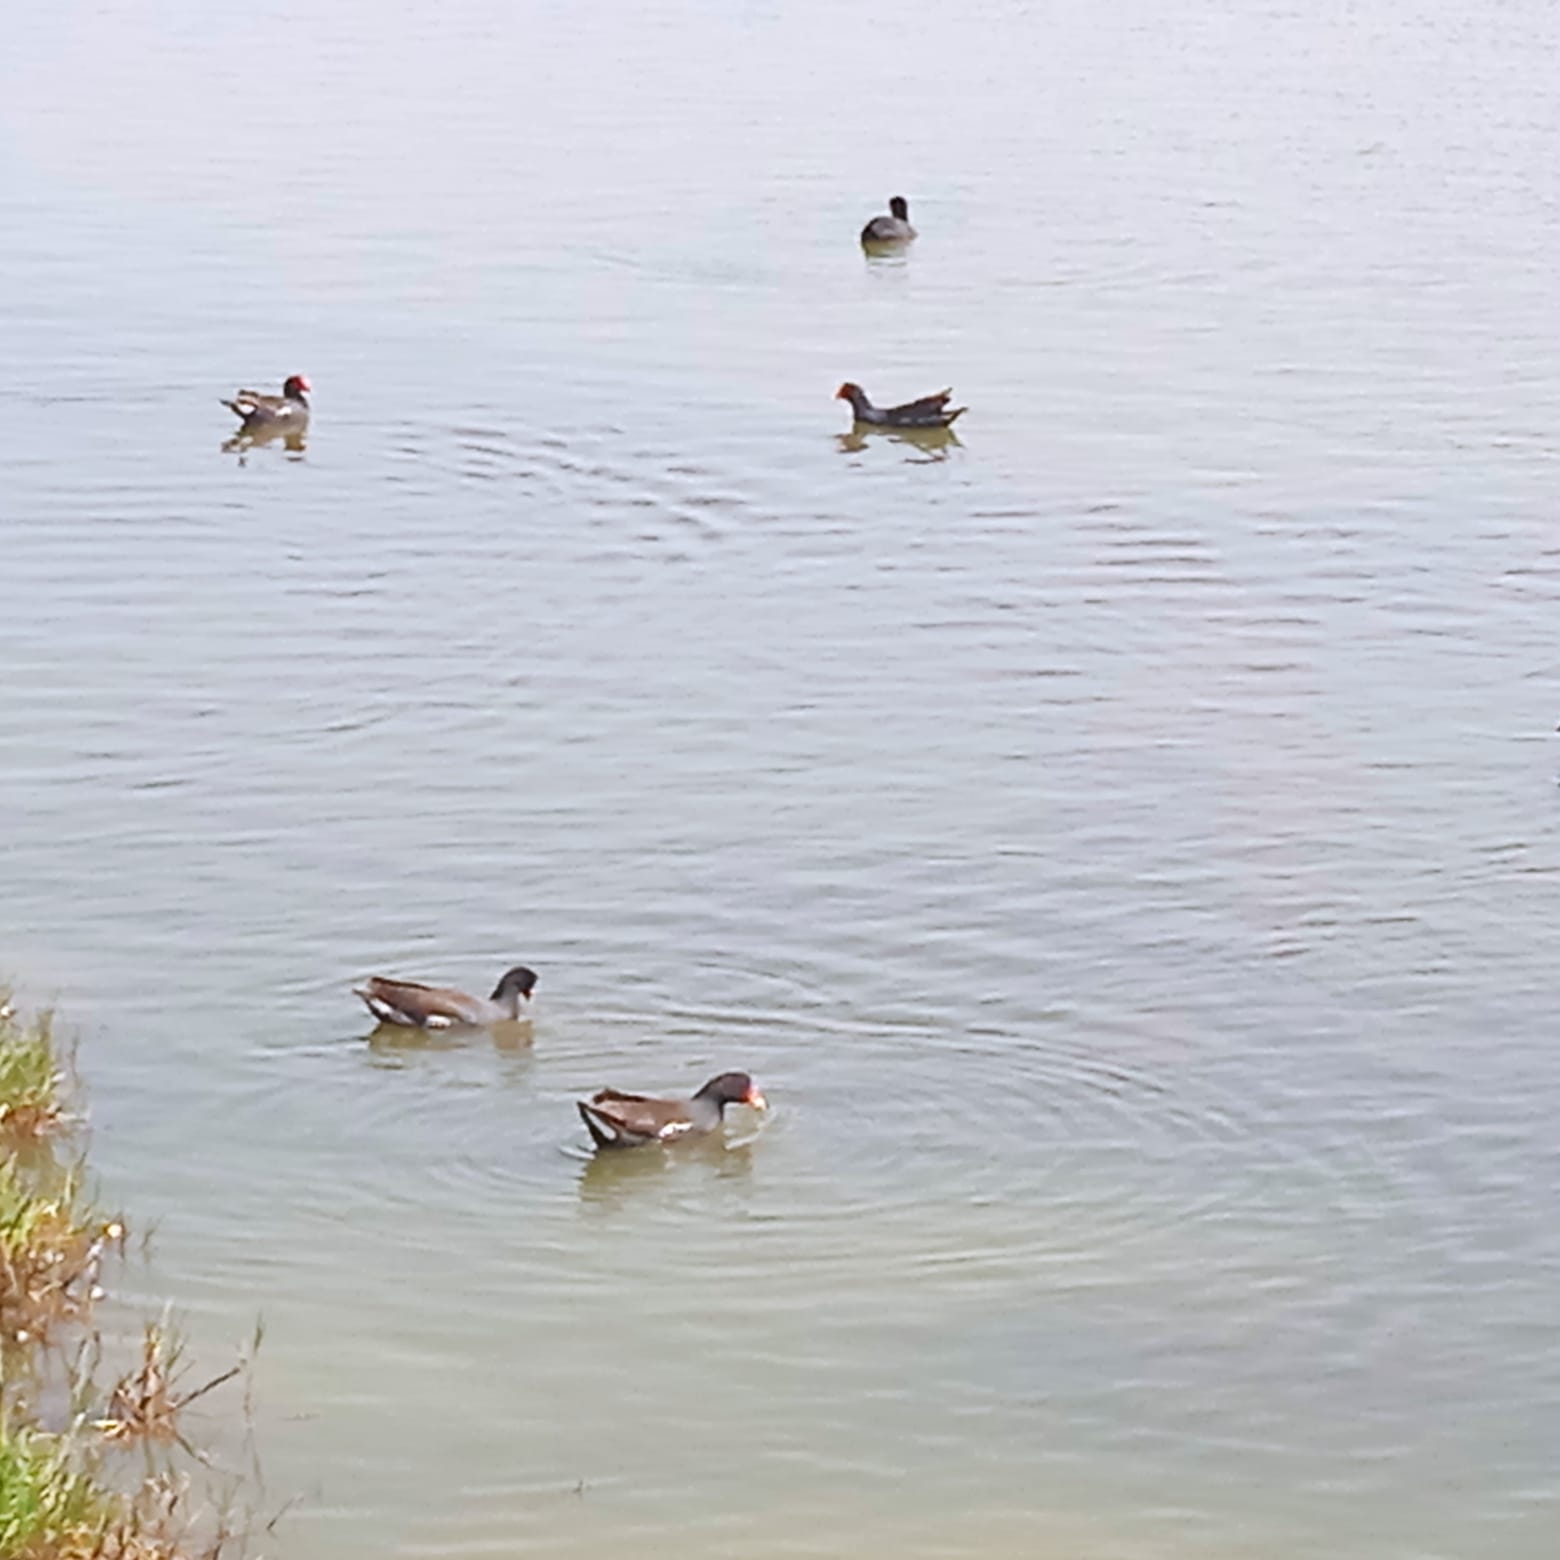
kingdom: Animalia
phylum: Chordata
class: Aves
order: Gruiformes
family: Rallidae
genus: Gallinula
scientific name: Gallinula chloropus
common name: Common moorhen
